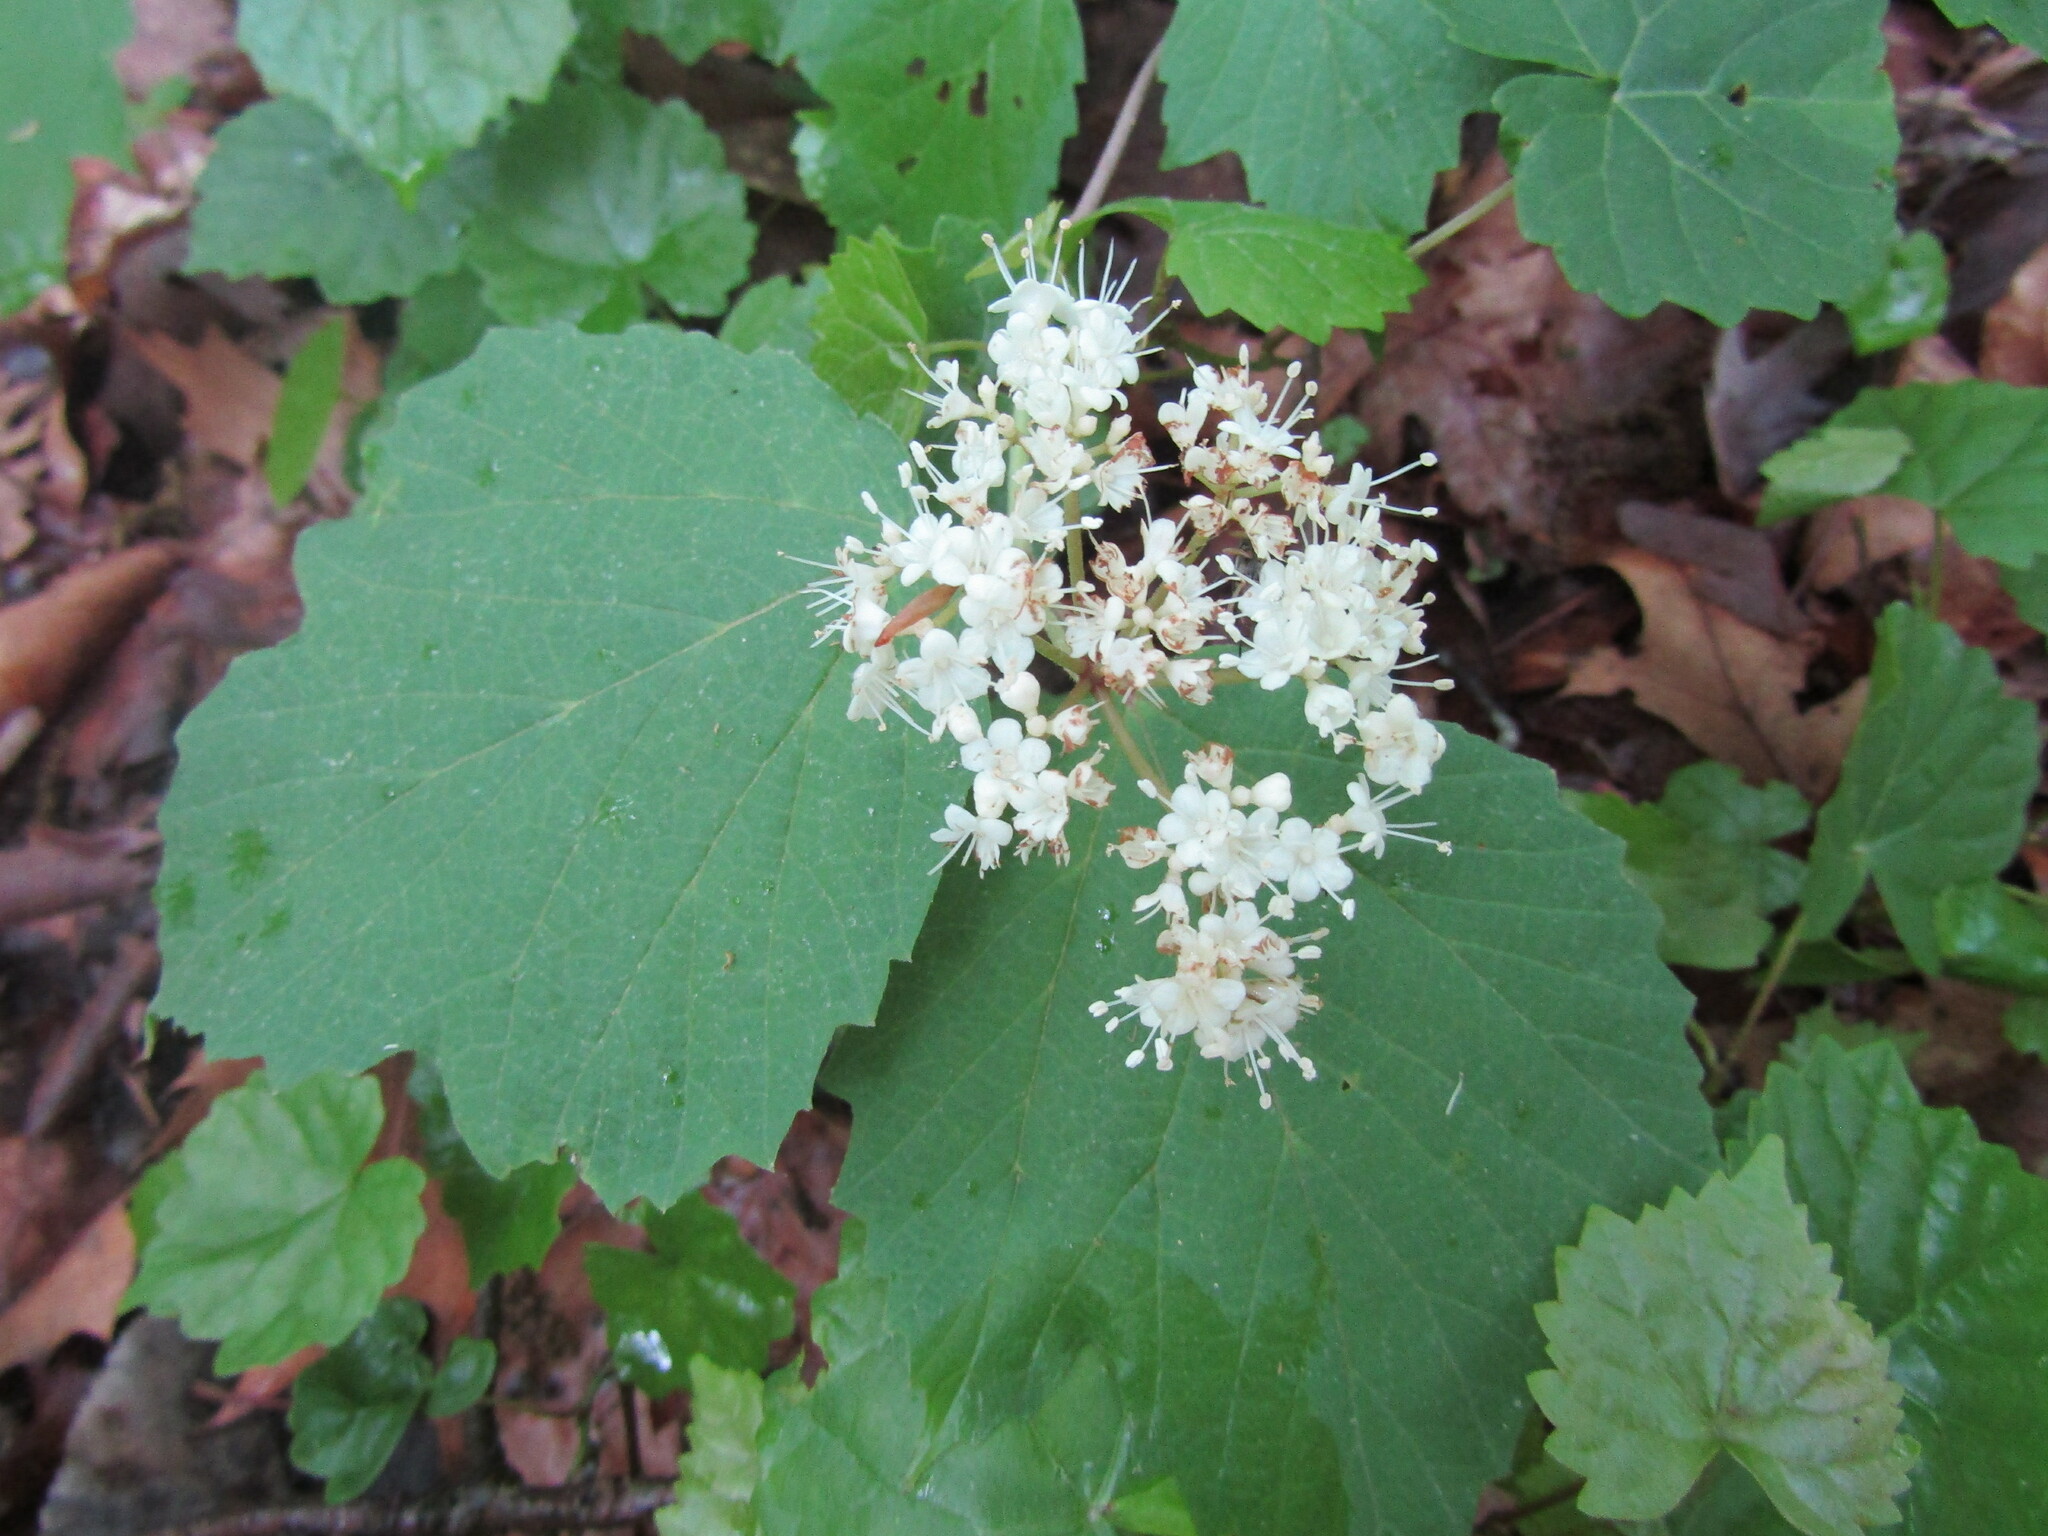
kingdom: Plantae
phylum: Tracheophyta
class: Magnoliopsida
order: Dipsacales
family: Viburnaceae
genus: Viburnum
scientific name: Viburnum acerifolium
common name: Dockmackie
